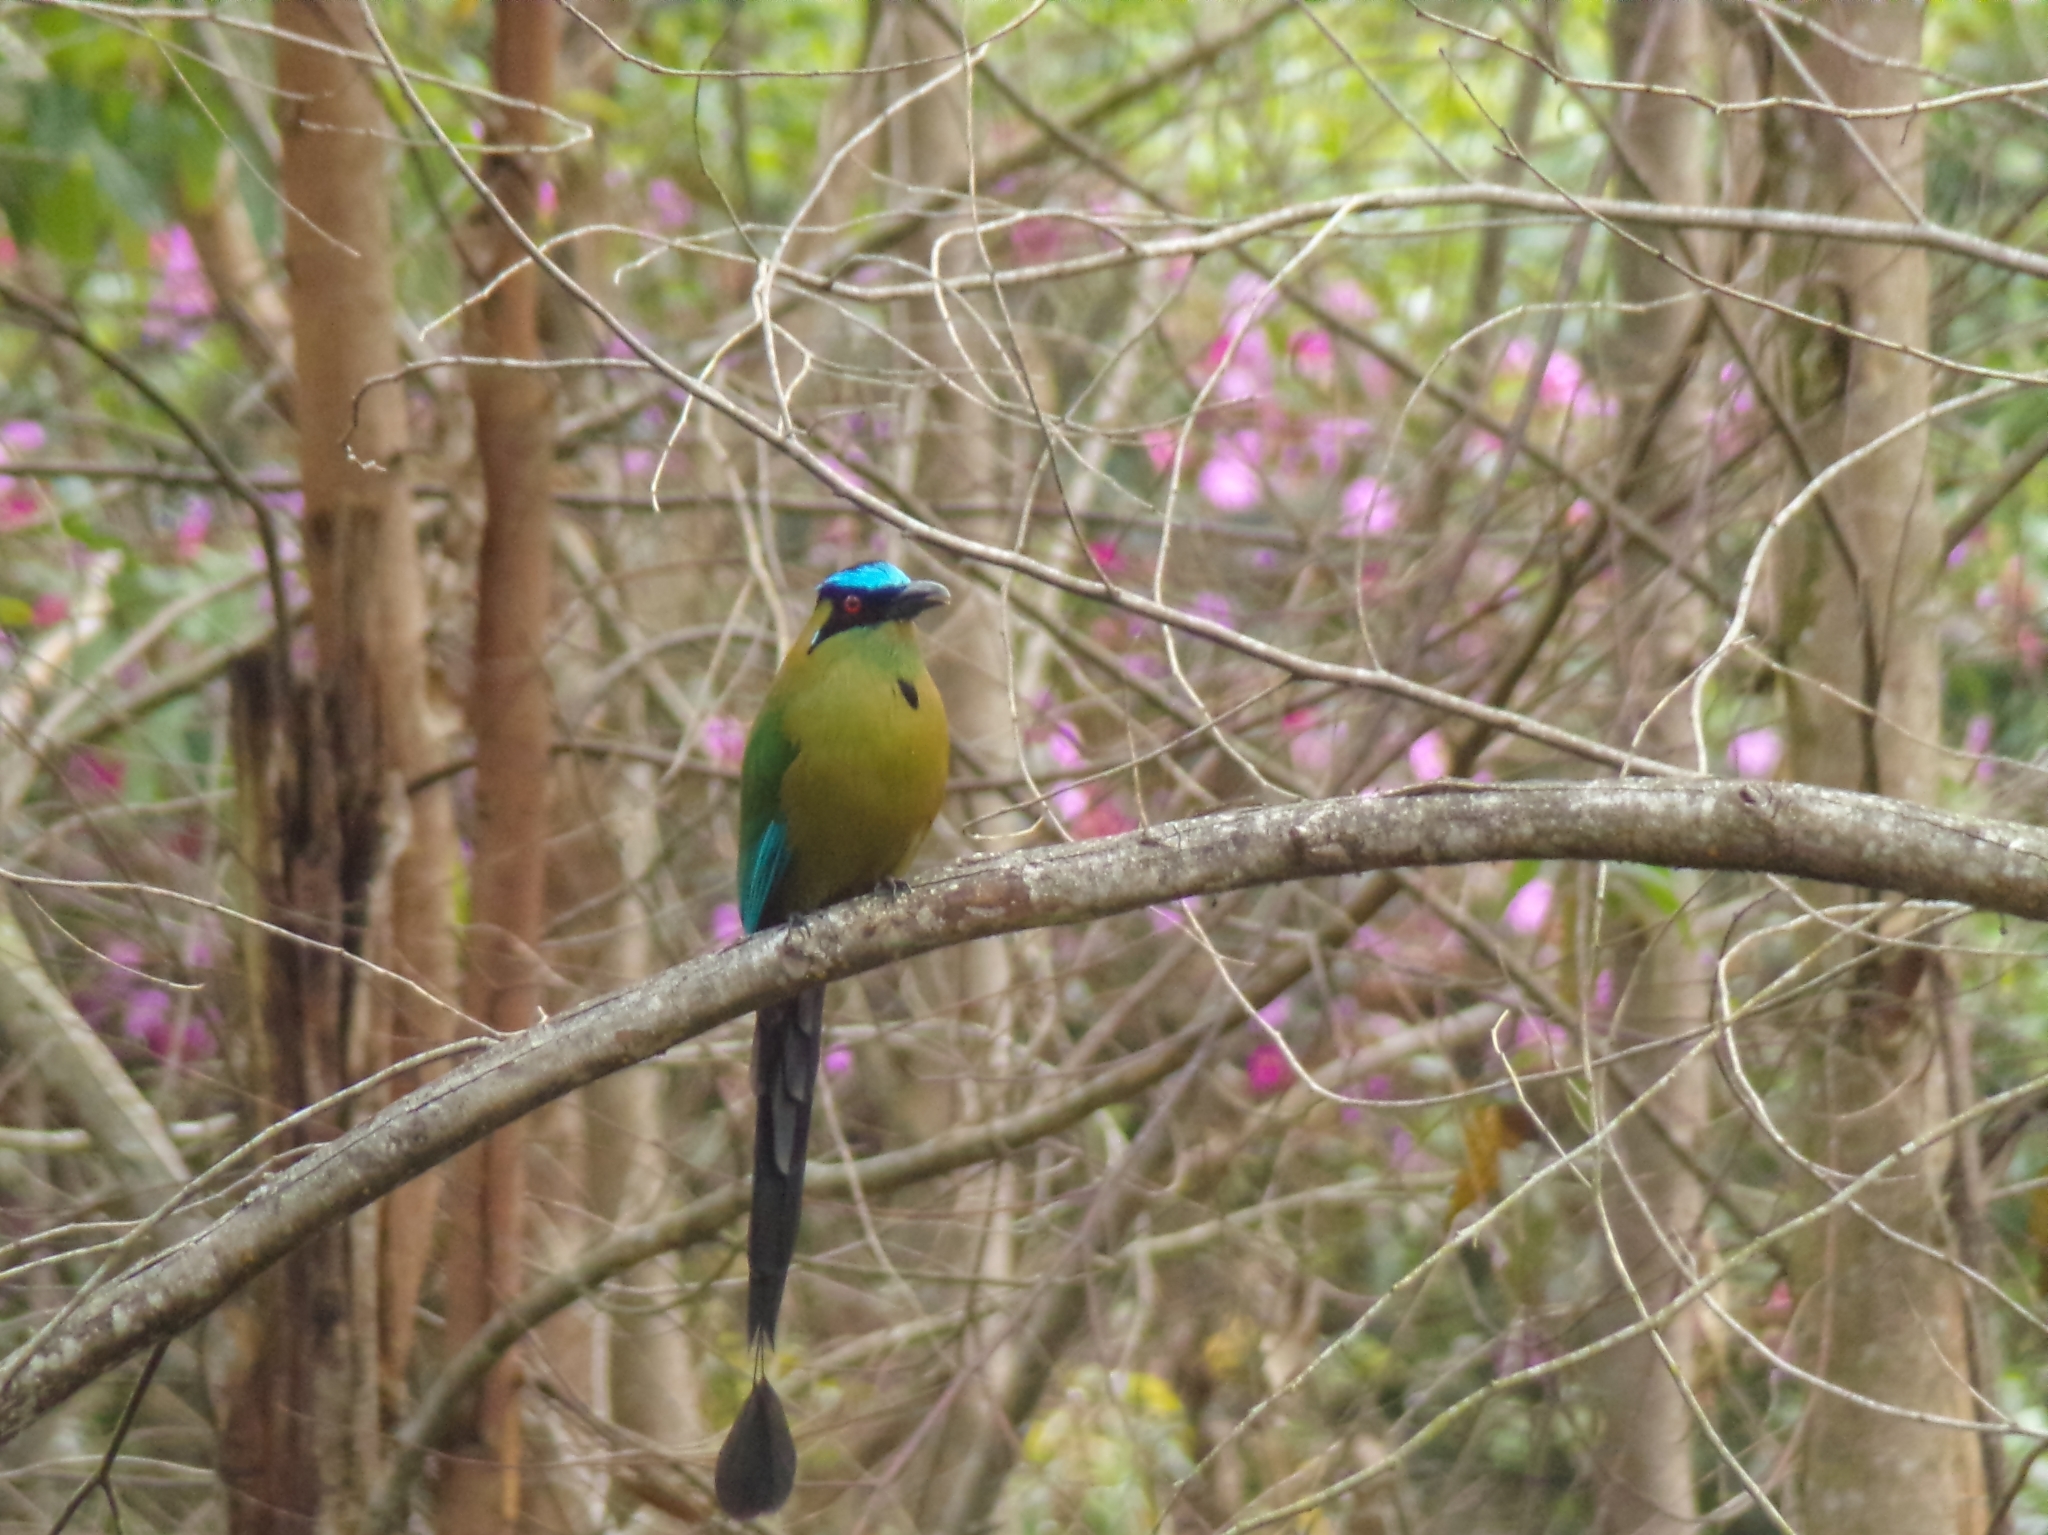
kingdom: Animalia
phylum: Chordata
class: Aves
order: Coraciiformes
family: Momotidae
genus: Momotus
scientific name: Momotus aequatorialis
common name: Andean motmot
